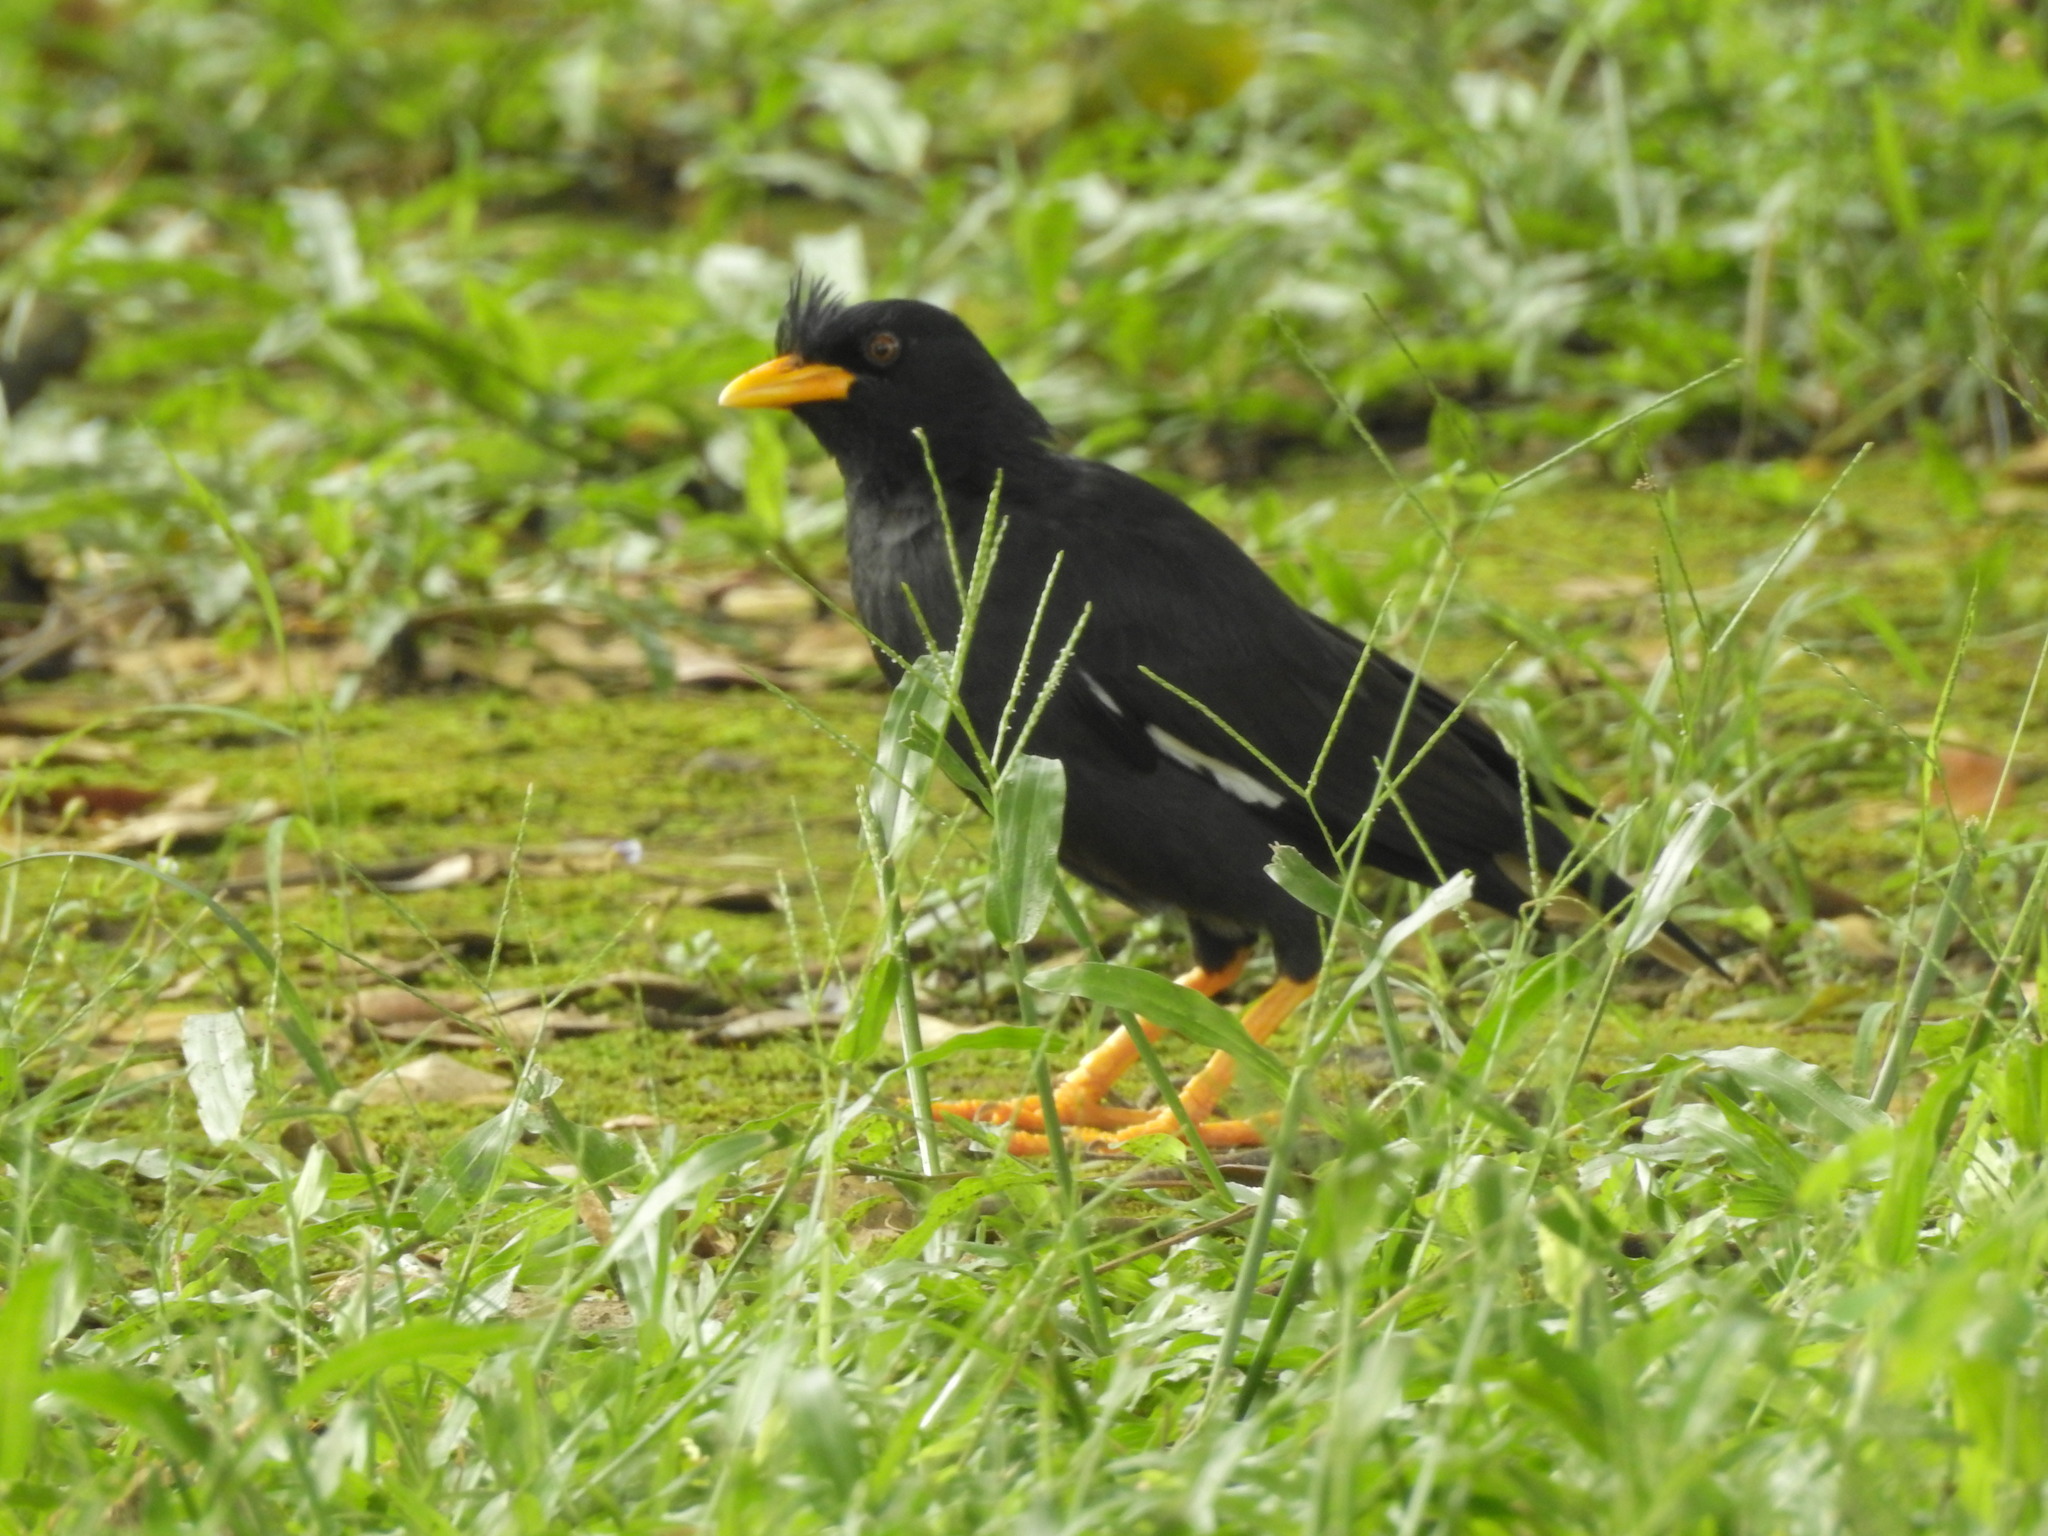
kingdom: Animalia
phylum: Chordata
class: Aves
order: Passeriformes
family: Sturnidae
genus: Acridotheres
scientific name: Acridotheres grandis
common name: Great myna
